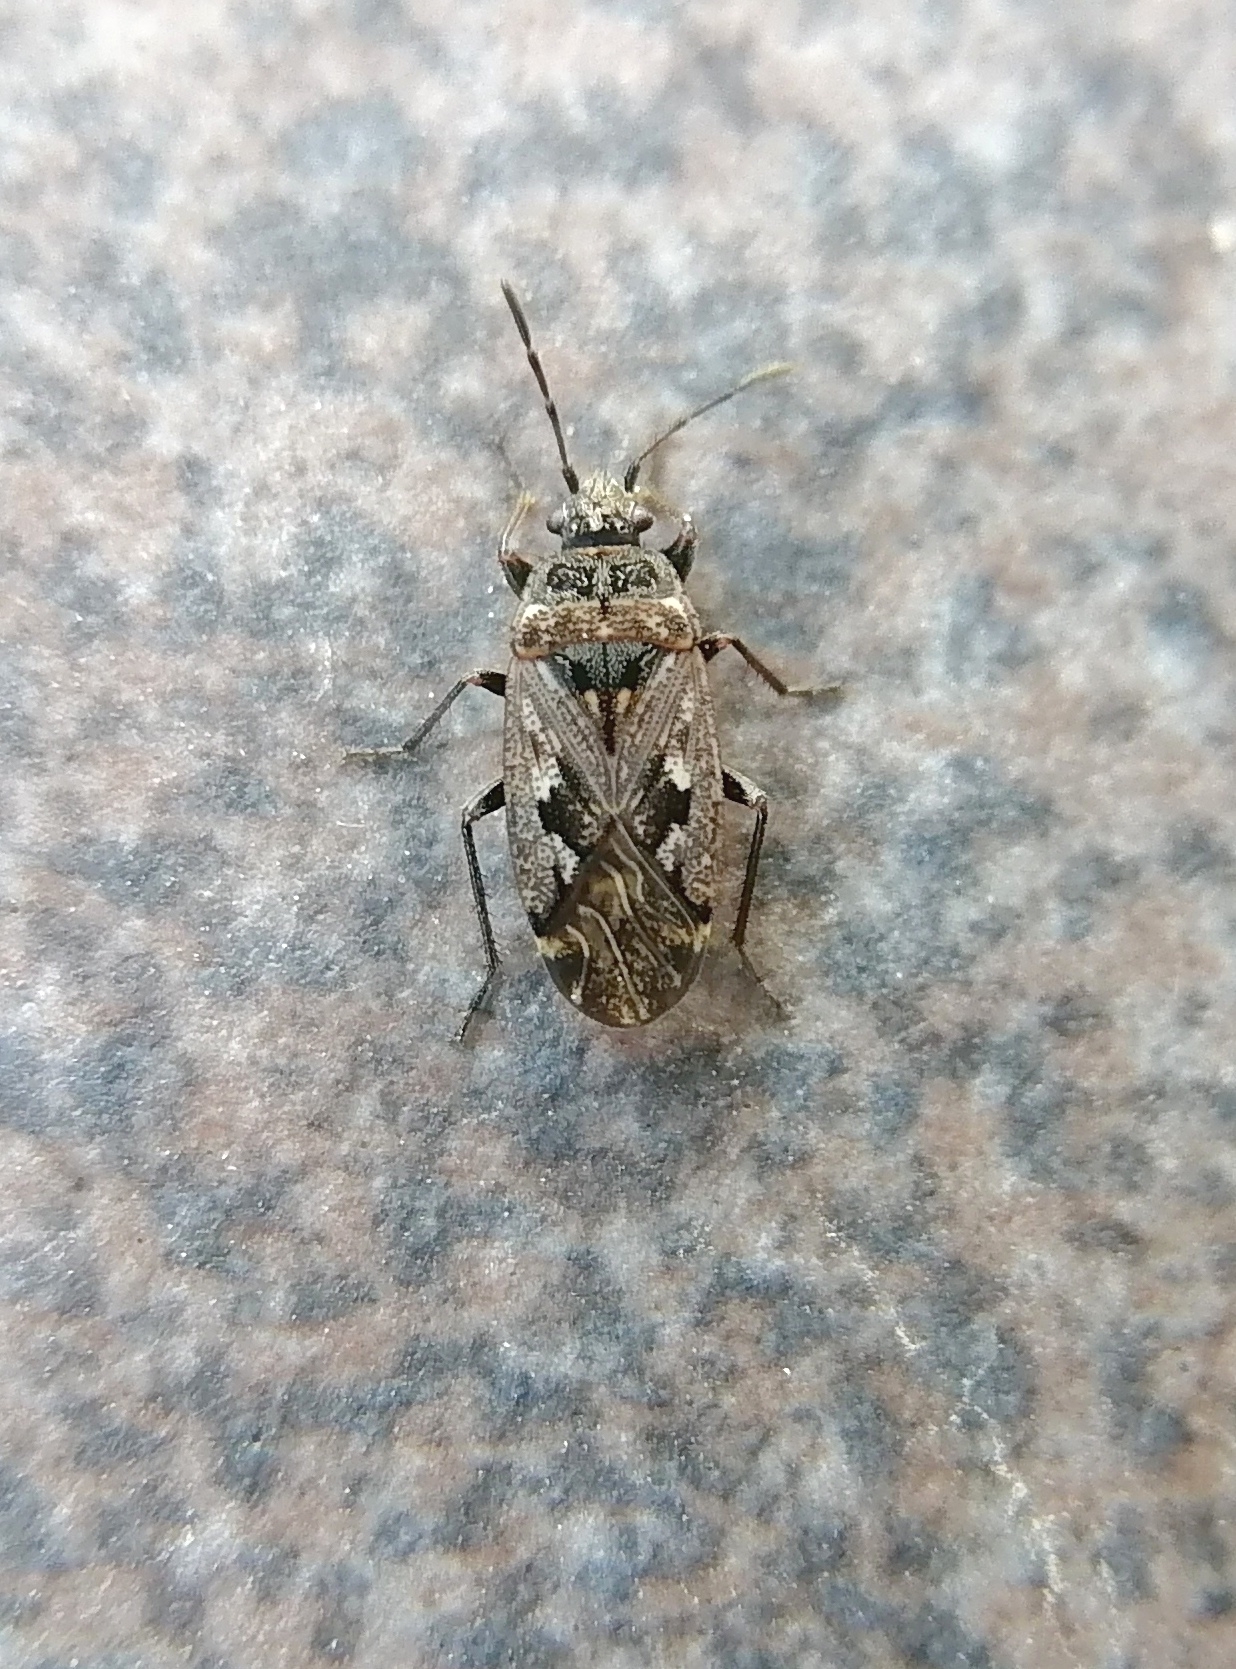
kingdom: Animalia
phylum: Arthropoda
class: Insecta
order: Hemiptera
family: Rhyparochromidae
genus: Sphragisticus
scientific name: Sphragisticus nebulosus
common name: Dirt-colored seed bug
